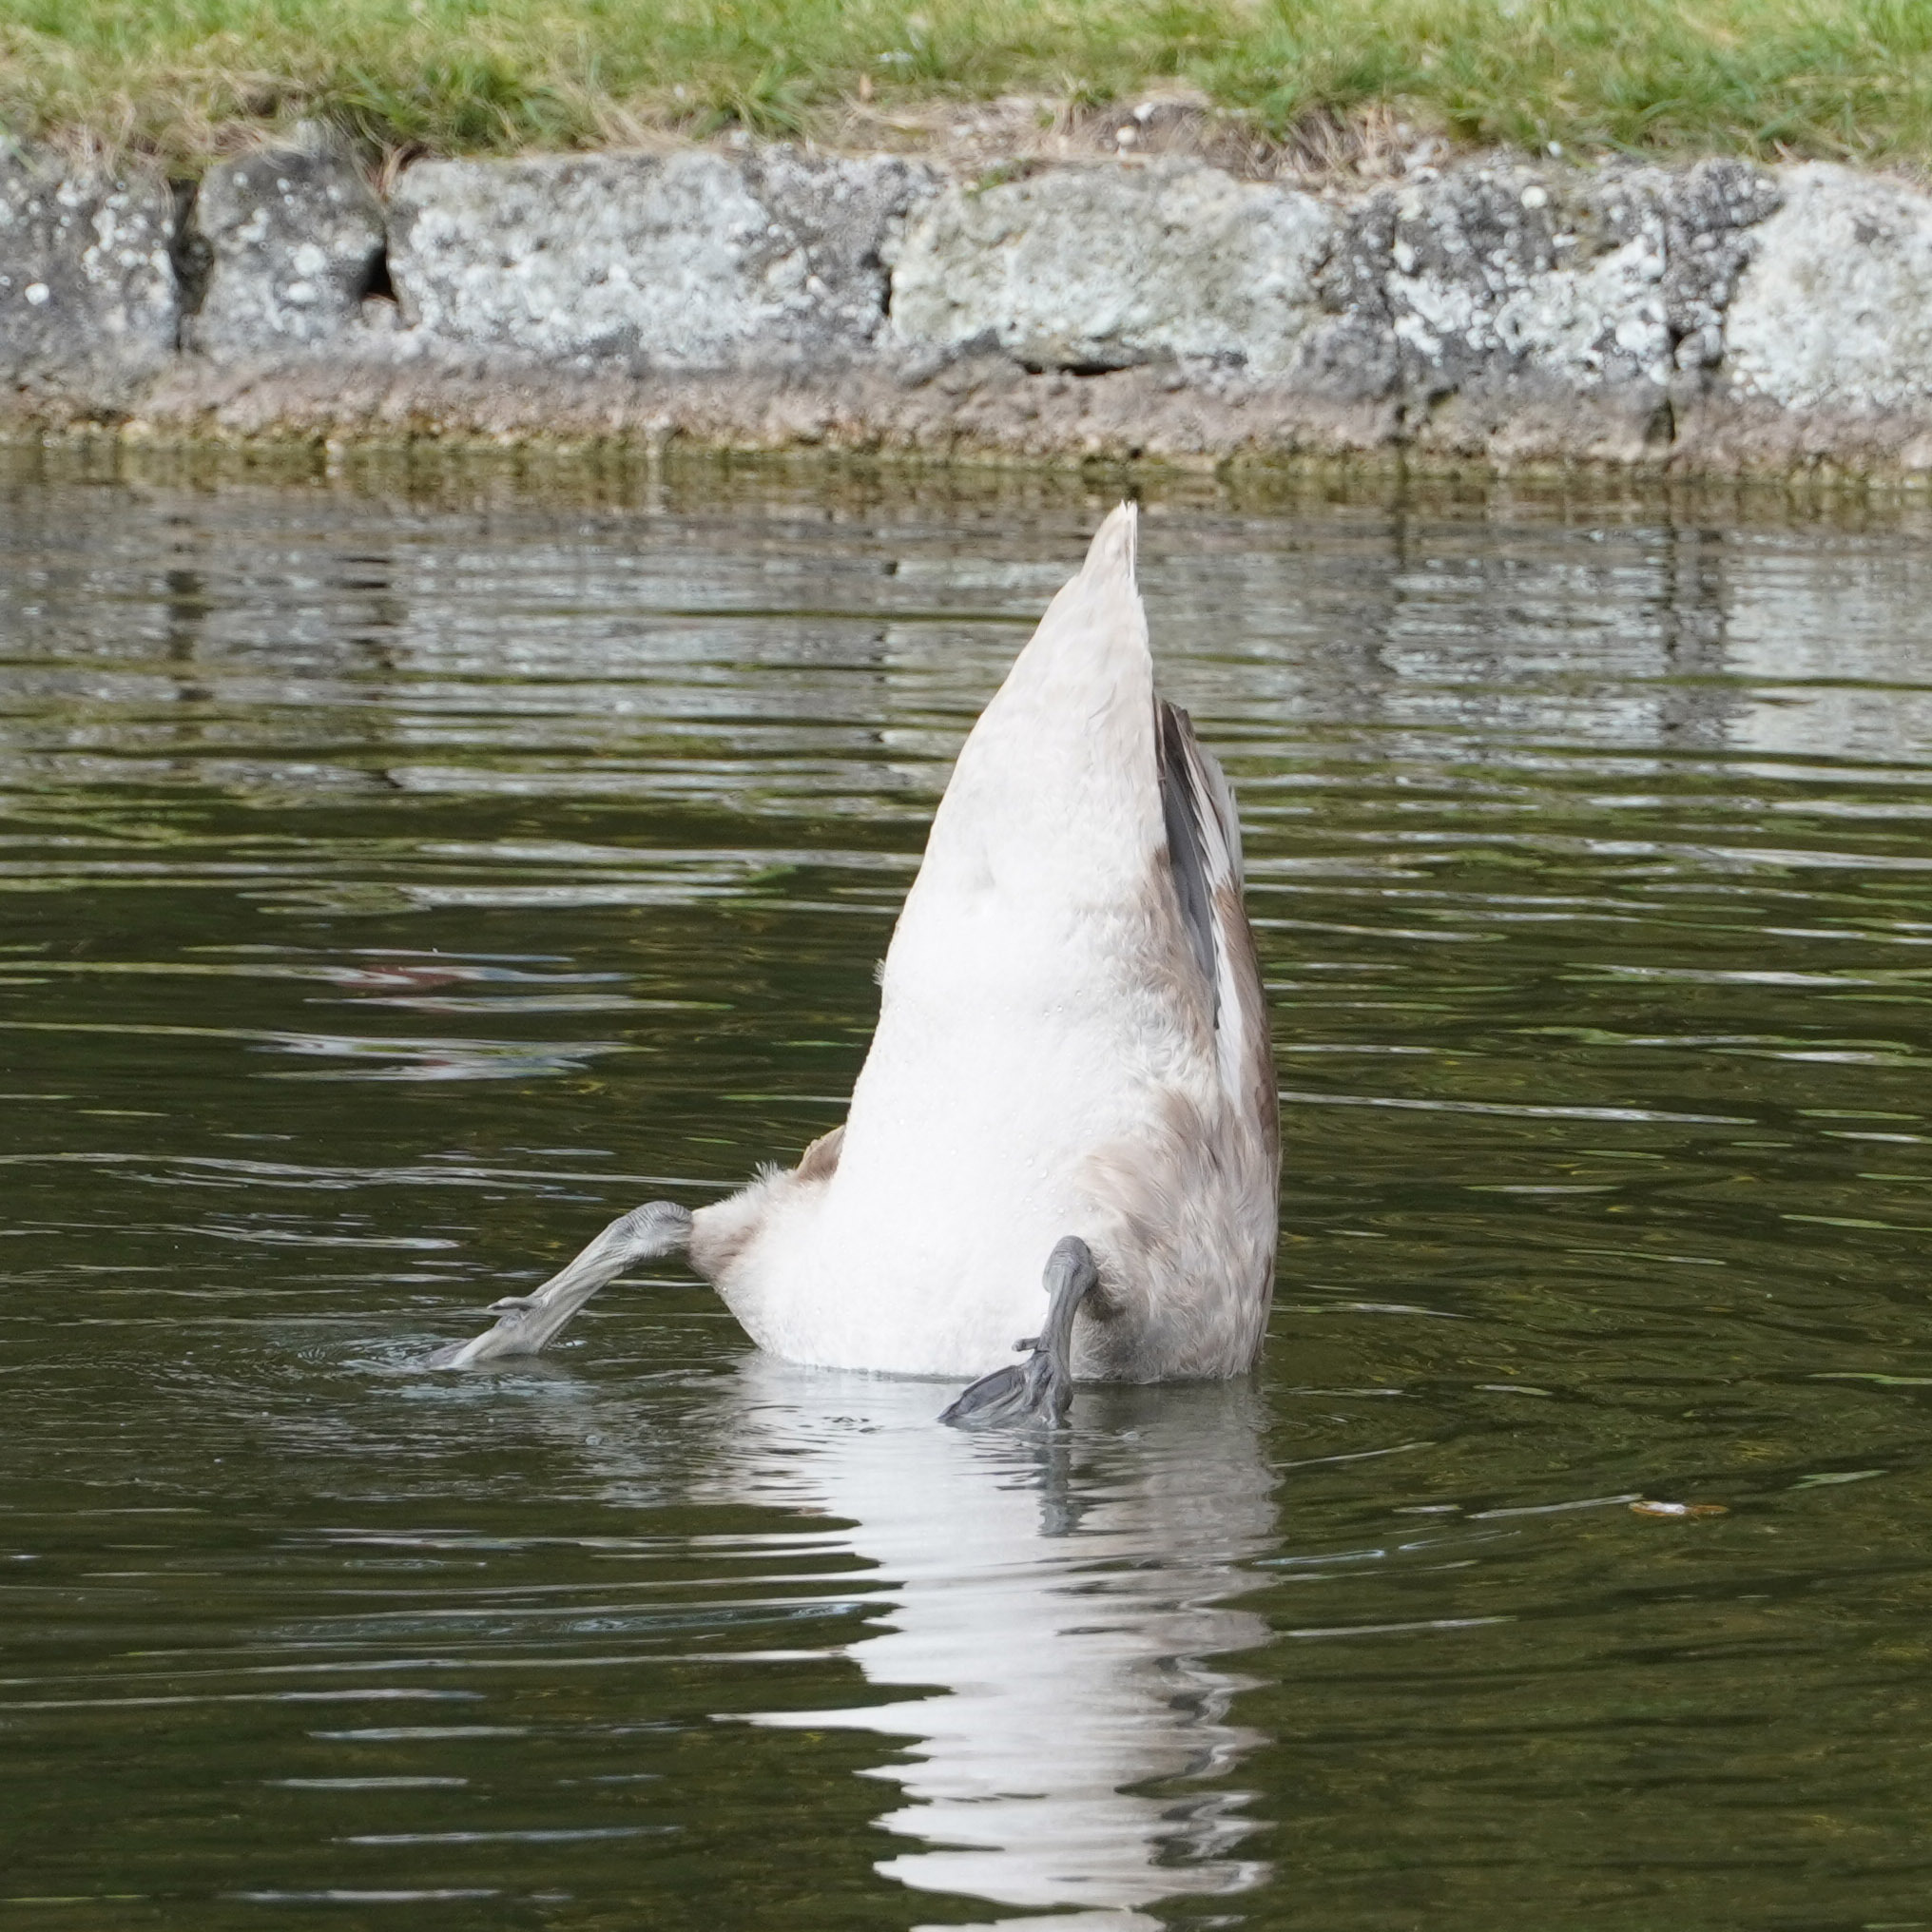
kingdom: Animalia
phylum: Chordata
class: Aves
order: Anseriformes
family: Anatidae
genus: Cygnus
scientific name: Cygnus olor
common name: Mute swan
